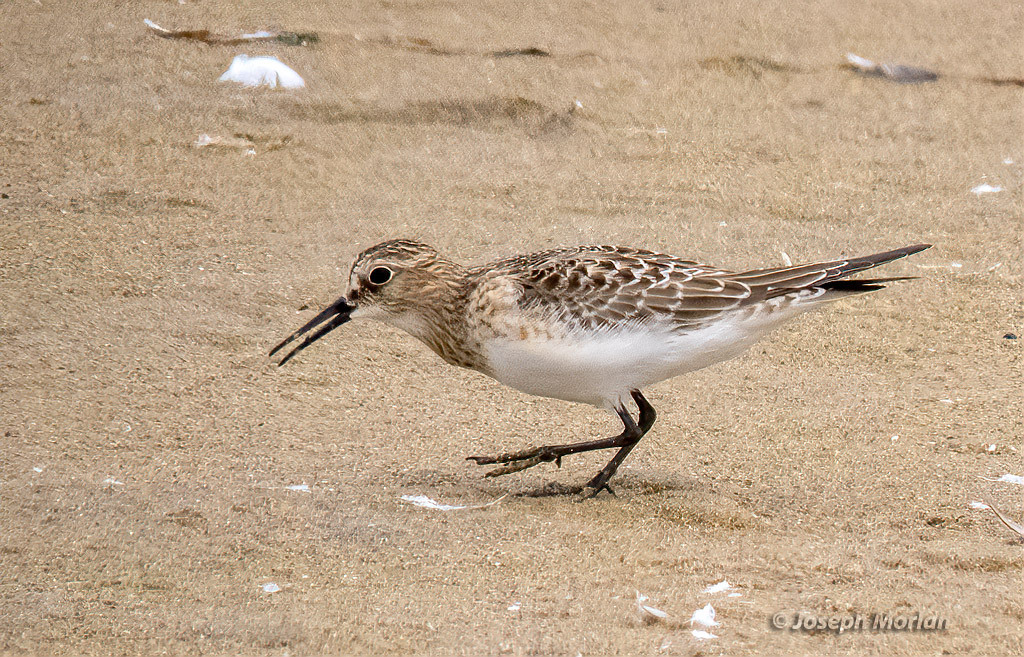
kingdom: Animalia
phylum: Chordata
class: Aves
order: Charadriiformes
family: Scolopacidae
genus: Calidris
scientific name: Calidris bairdii
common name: Baird's sandpiper
